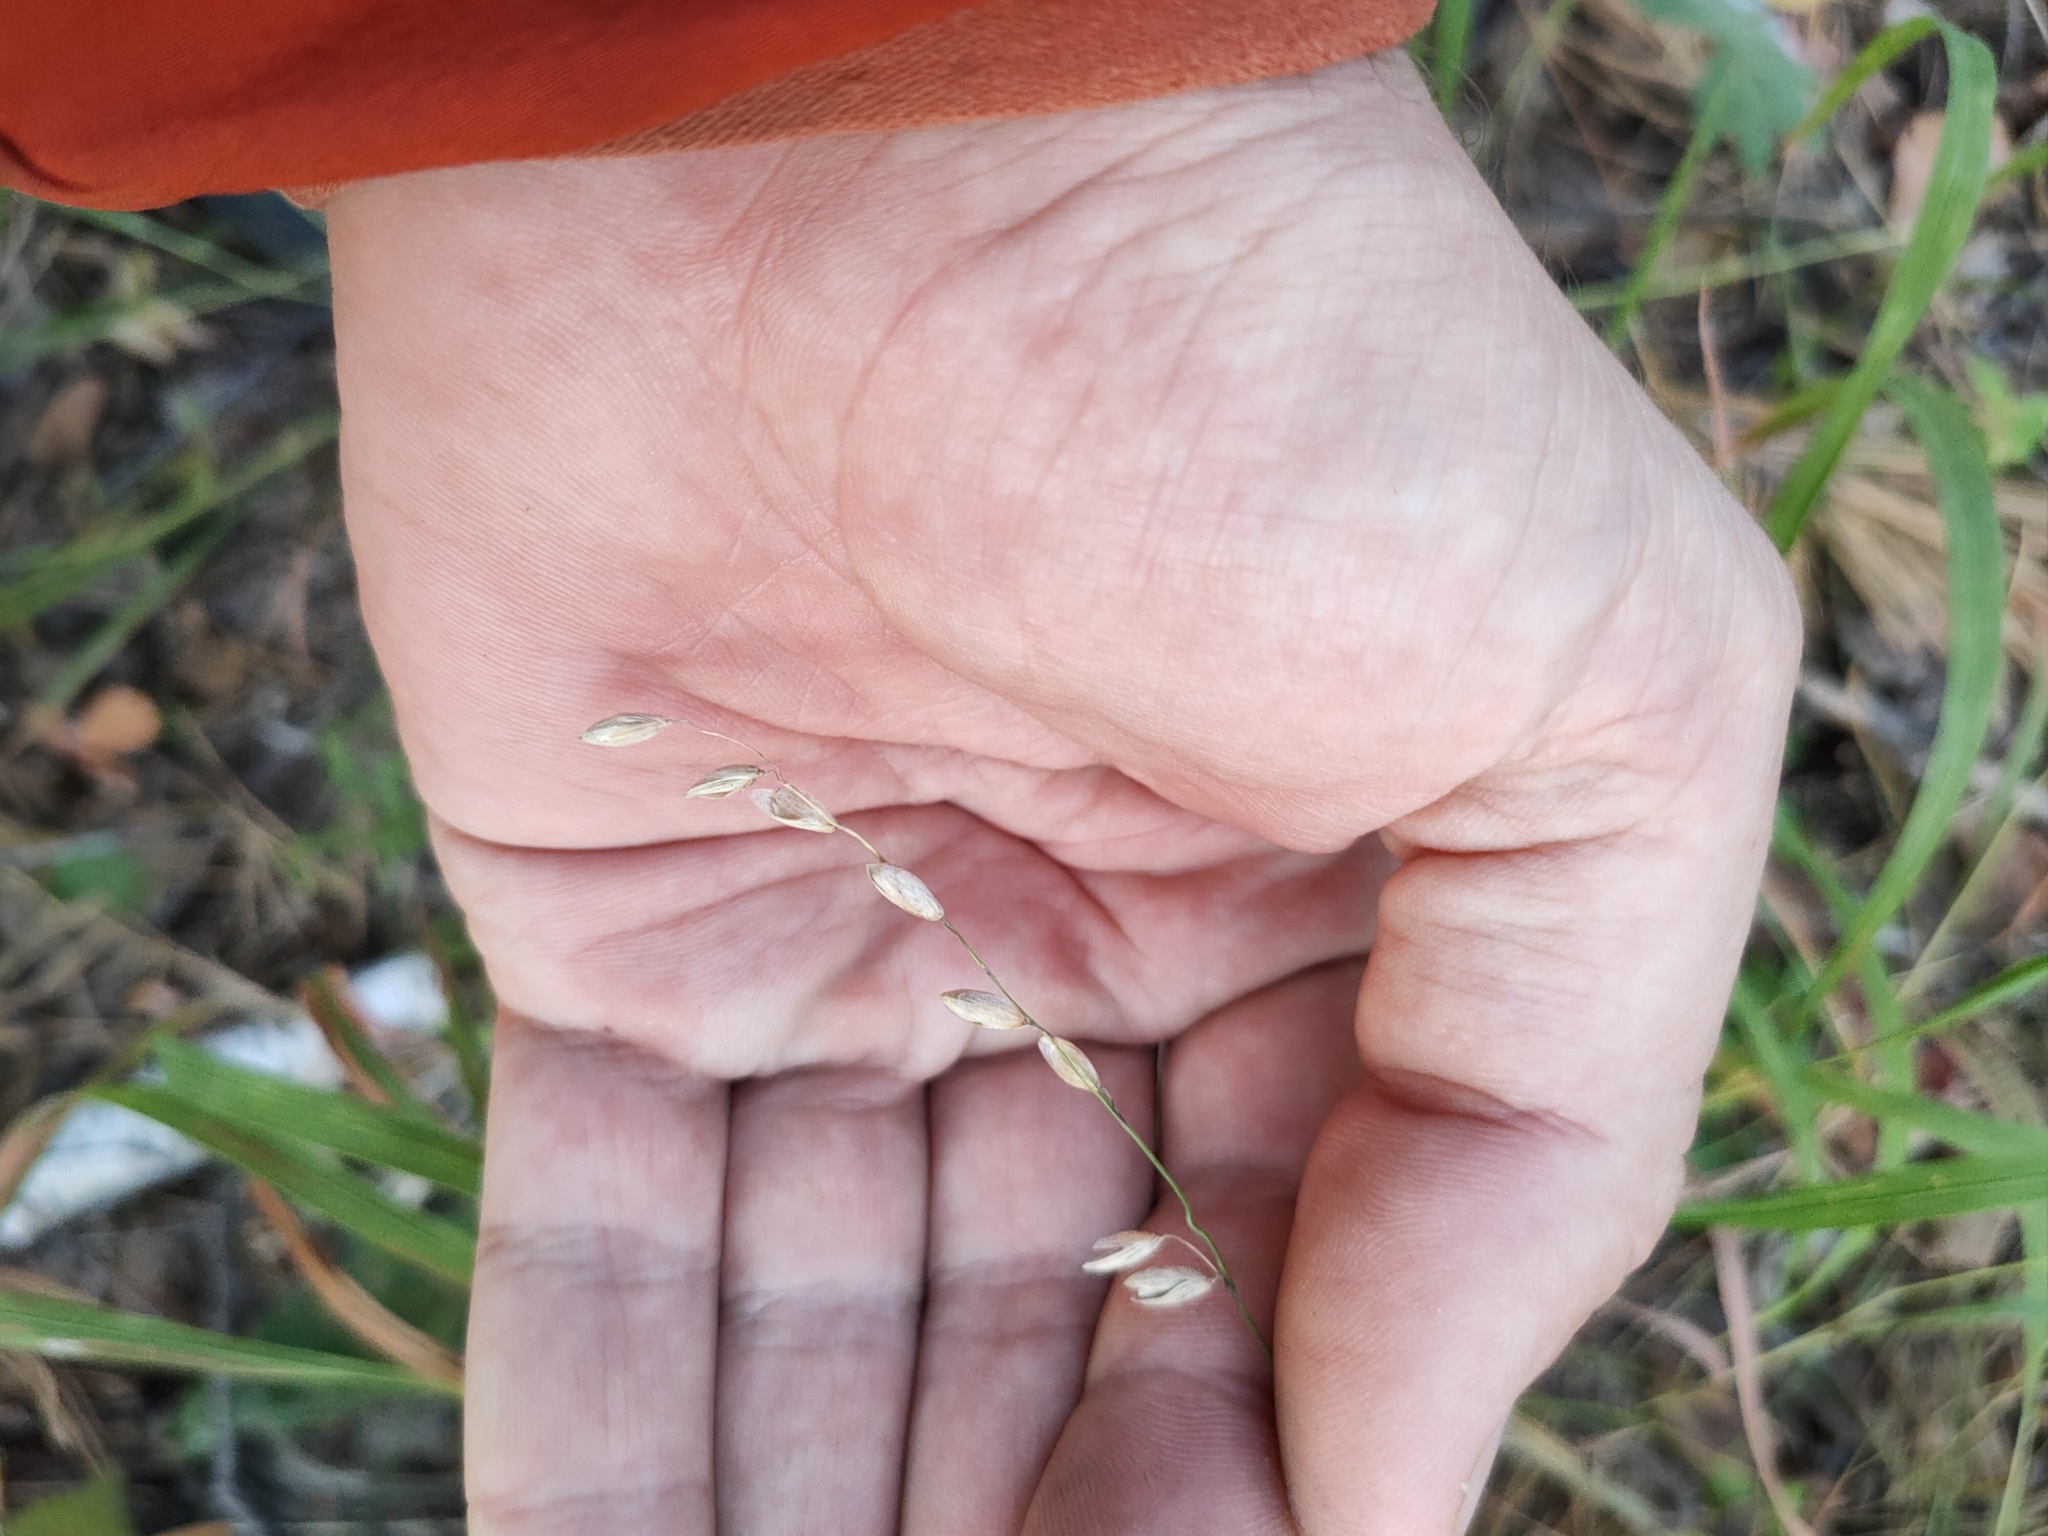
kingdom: Plantae
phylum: Tracheophyta
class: Liliopsida
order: Poales
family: Poaceae
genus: Melica
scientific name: Melica nutans
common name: Mountain melick
